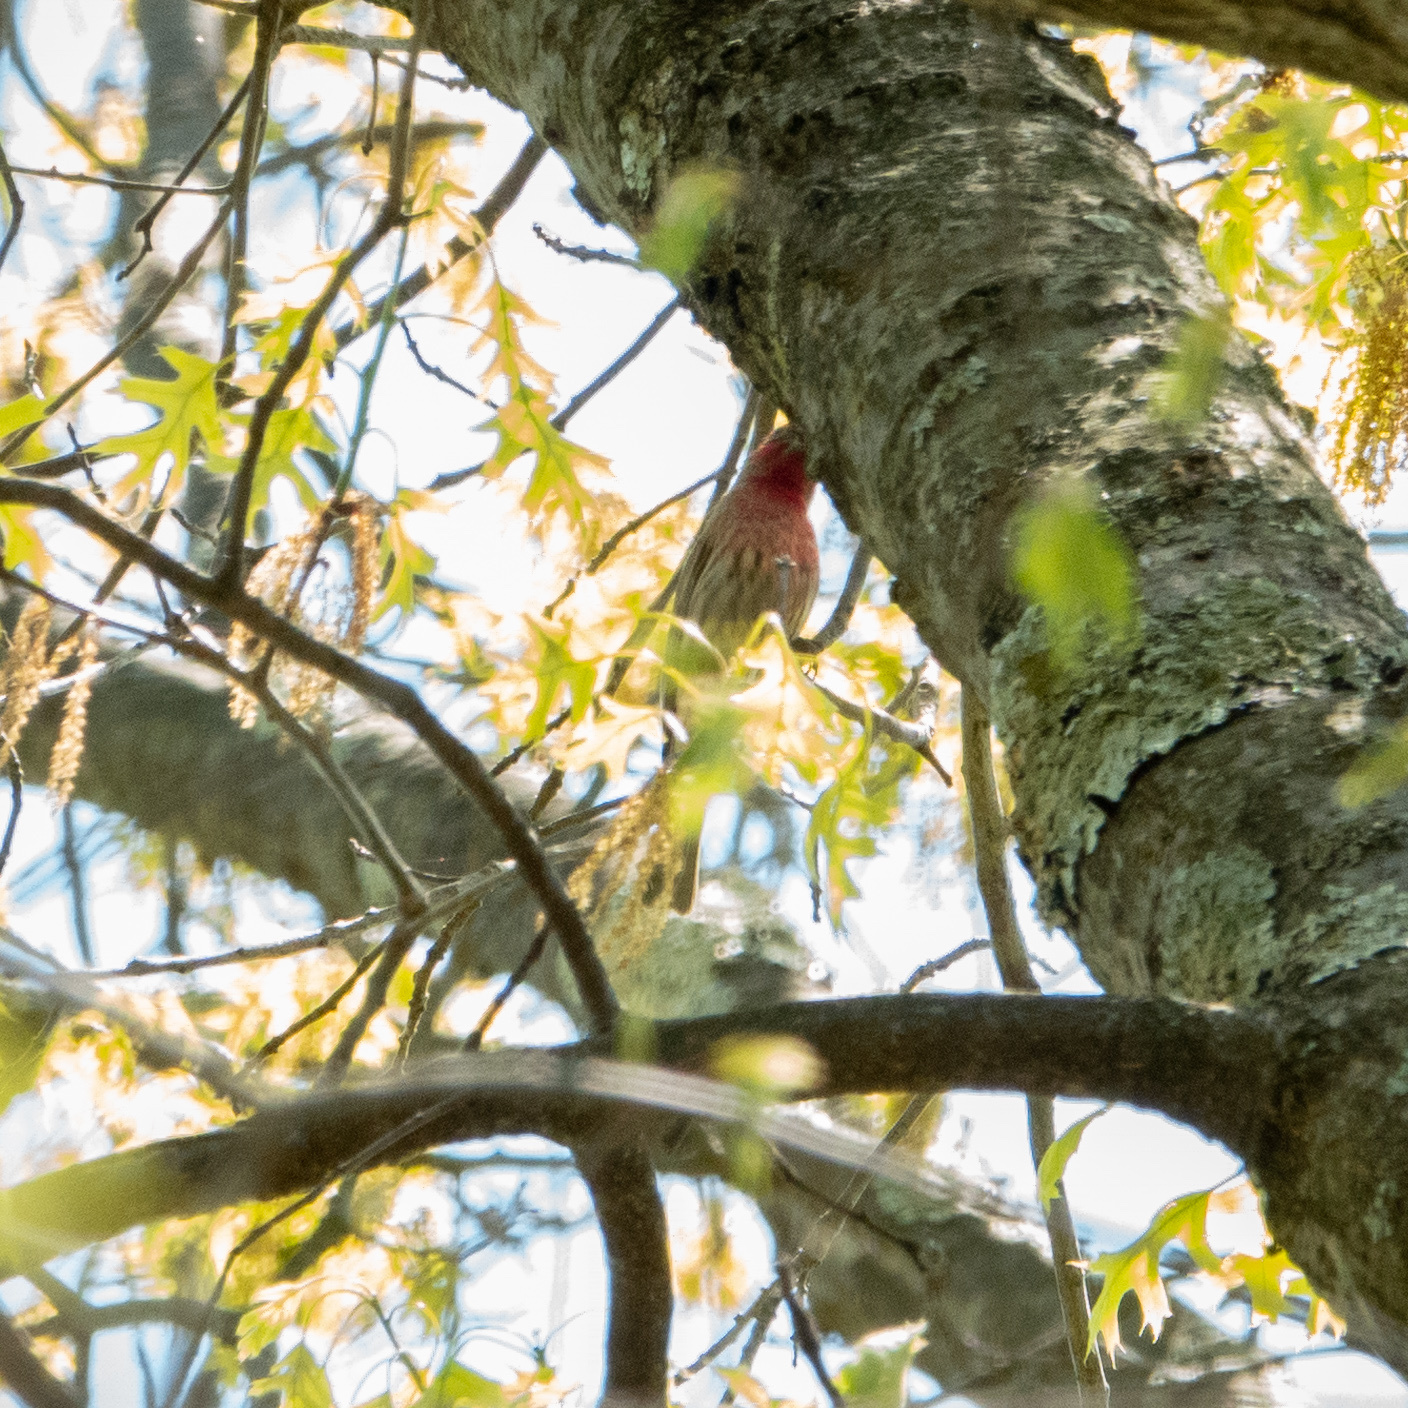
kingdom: Animalia
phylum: Chordata
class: Aves
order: Passeriformes
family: Fringillidae
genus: Haemorhous
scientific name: Haemorhous mexicanus
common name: House finch
